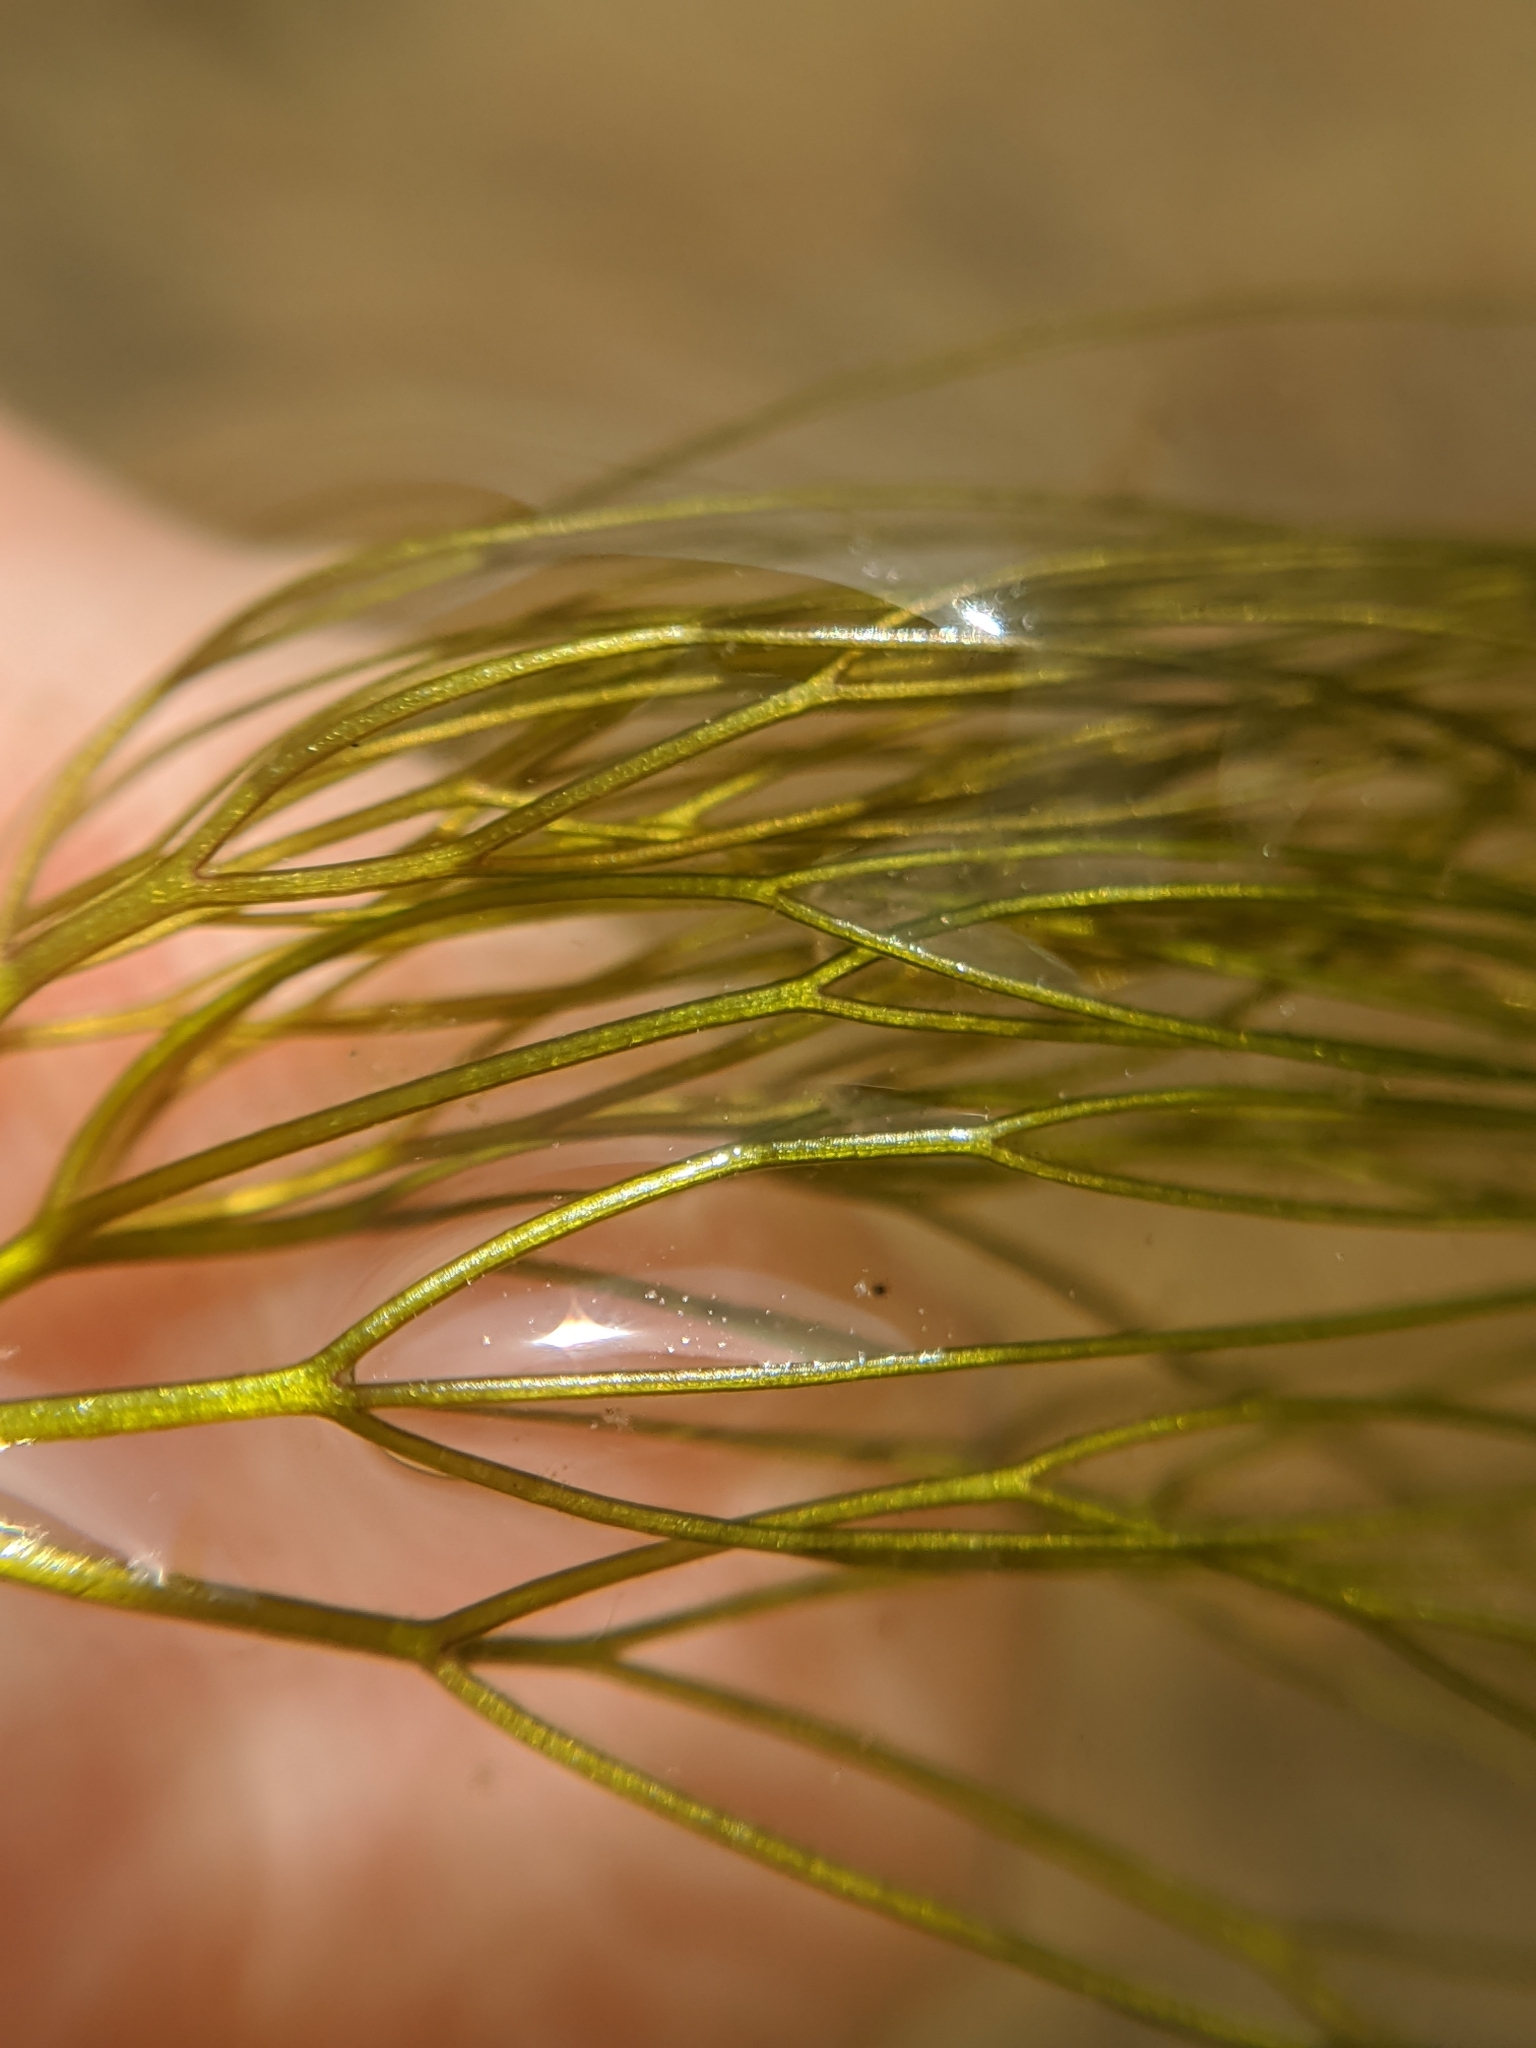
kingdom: Plantae
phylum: Tracheophyta
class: Magnoliopsida
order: Ranunculales
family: Ranunculaceae
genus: Ranunculus
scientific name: Ranunculus aquatilis
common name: Common water-crowfoot
